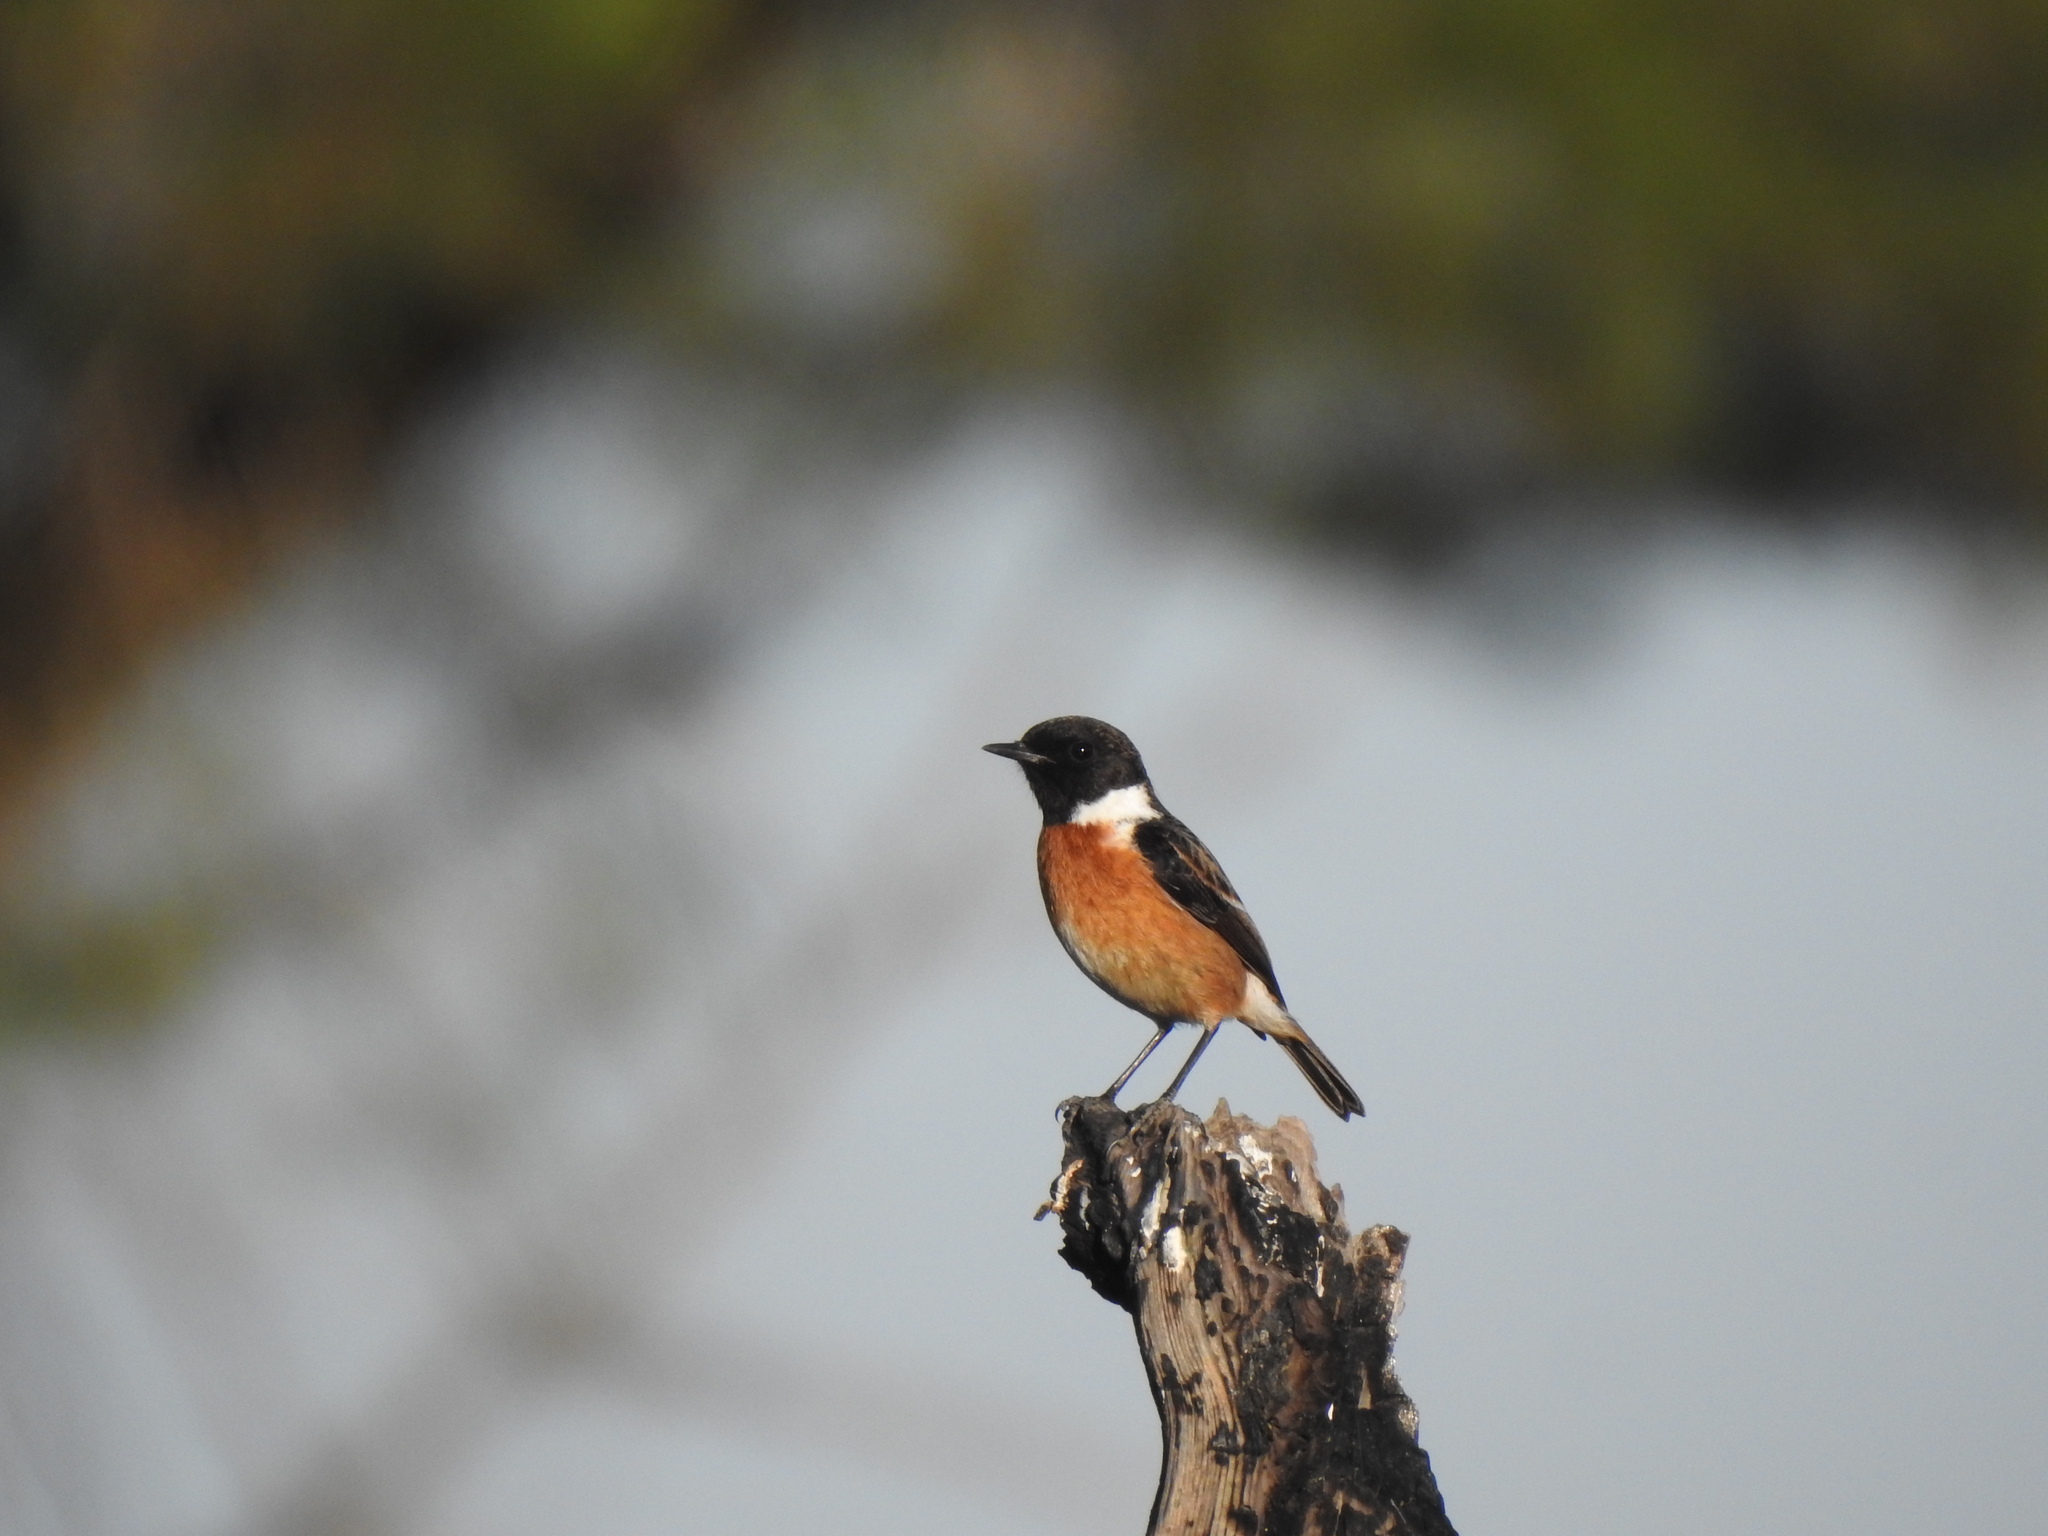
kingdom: Animalia
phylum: Chordata
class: Aves
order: Passeriformes
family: Muscicapidae
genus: Saxicola
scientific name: Saxicola rubicola
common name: European stonechat
